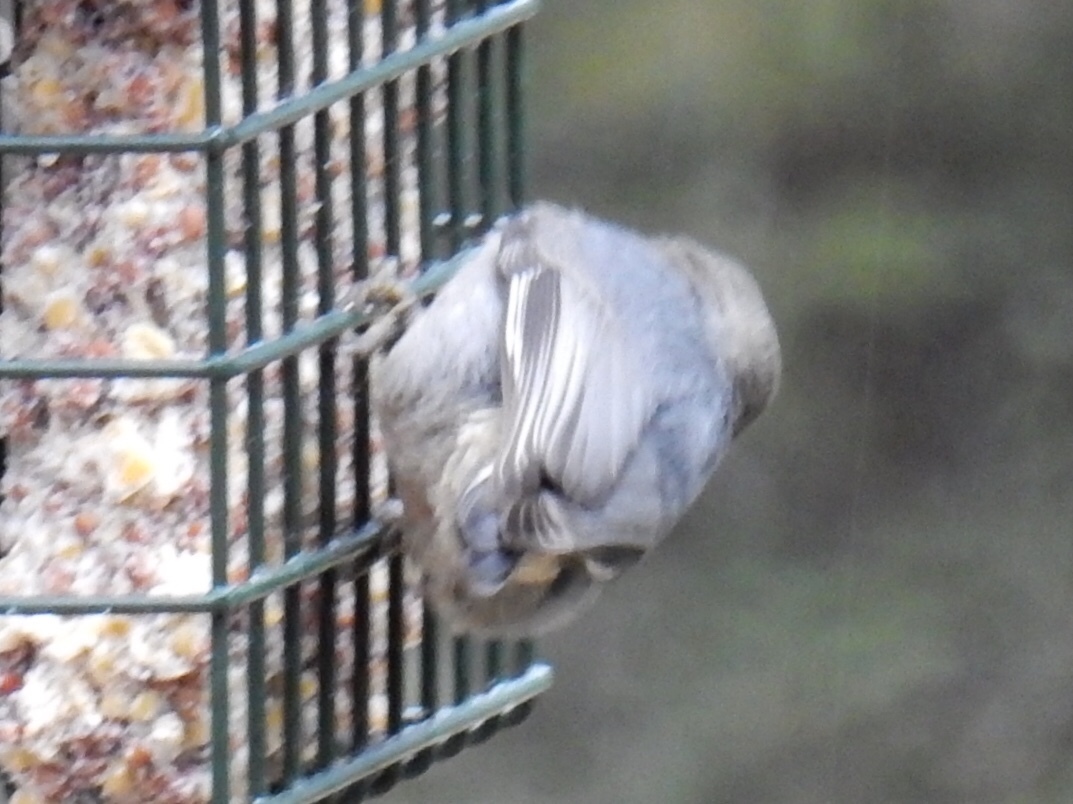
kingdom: Animalia
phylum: Chordata
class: Aves
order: Passeriformes
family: Sittidae
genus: Sitta
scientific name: Sitta pygmaea
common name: Pygmy nuthatch
